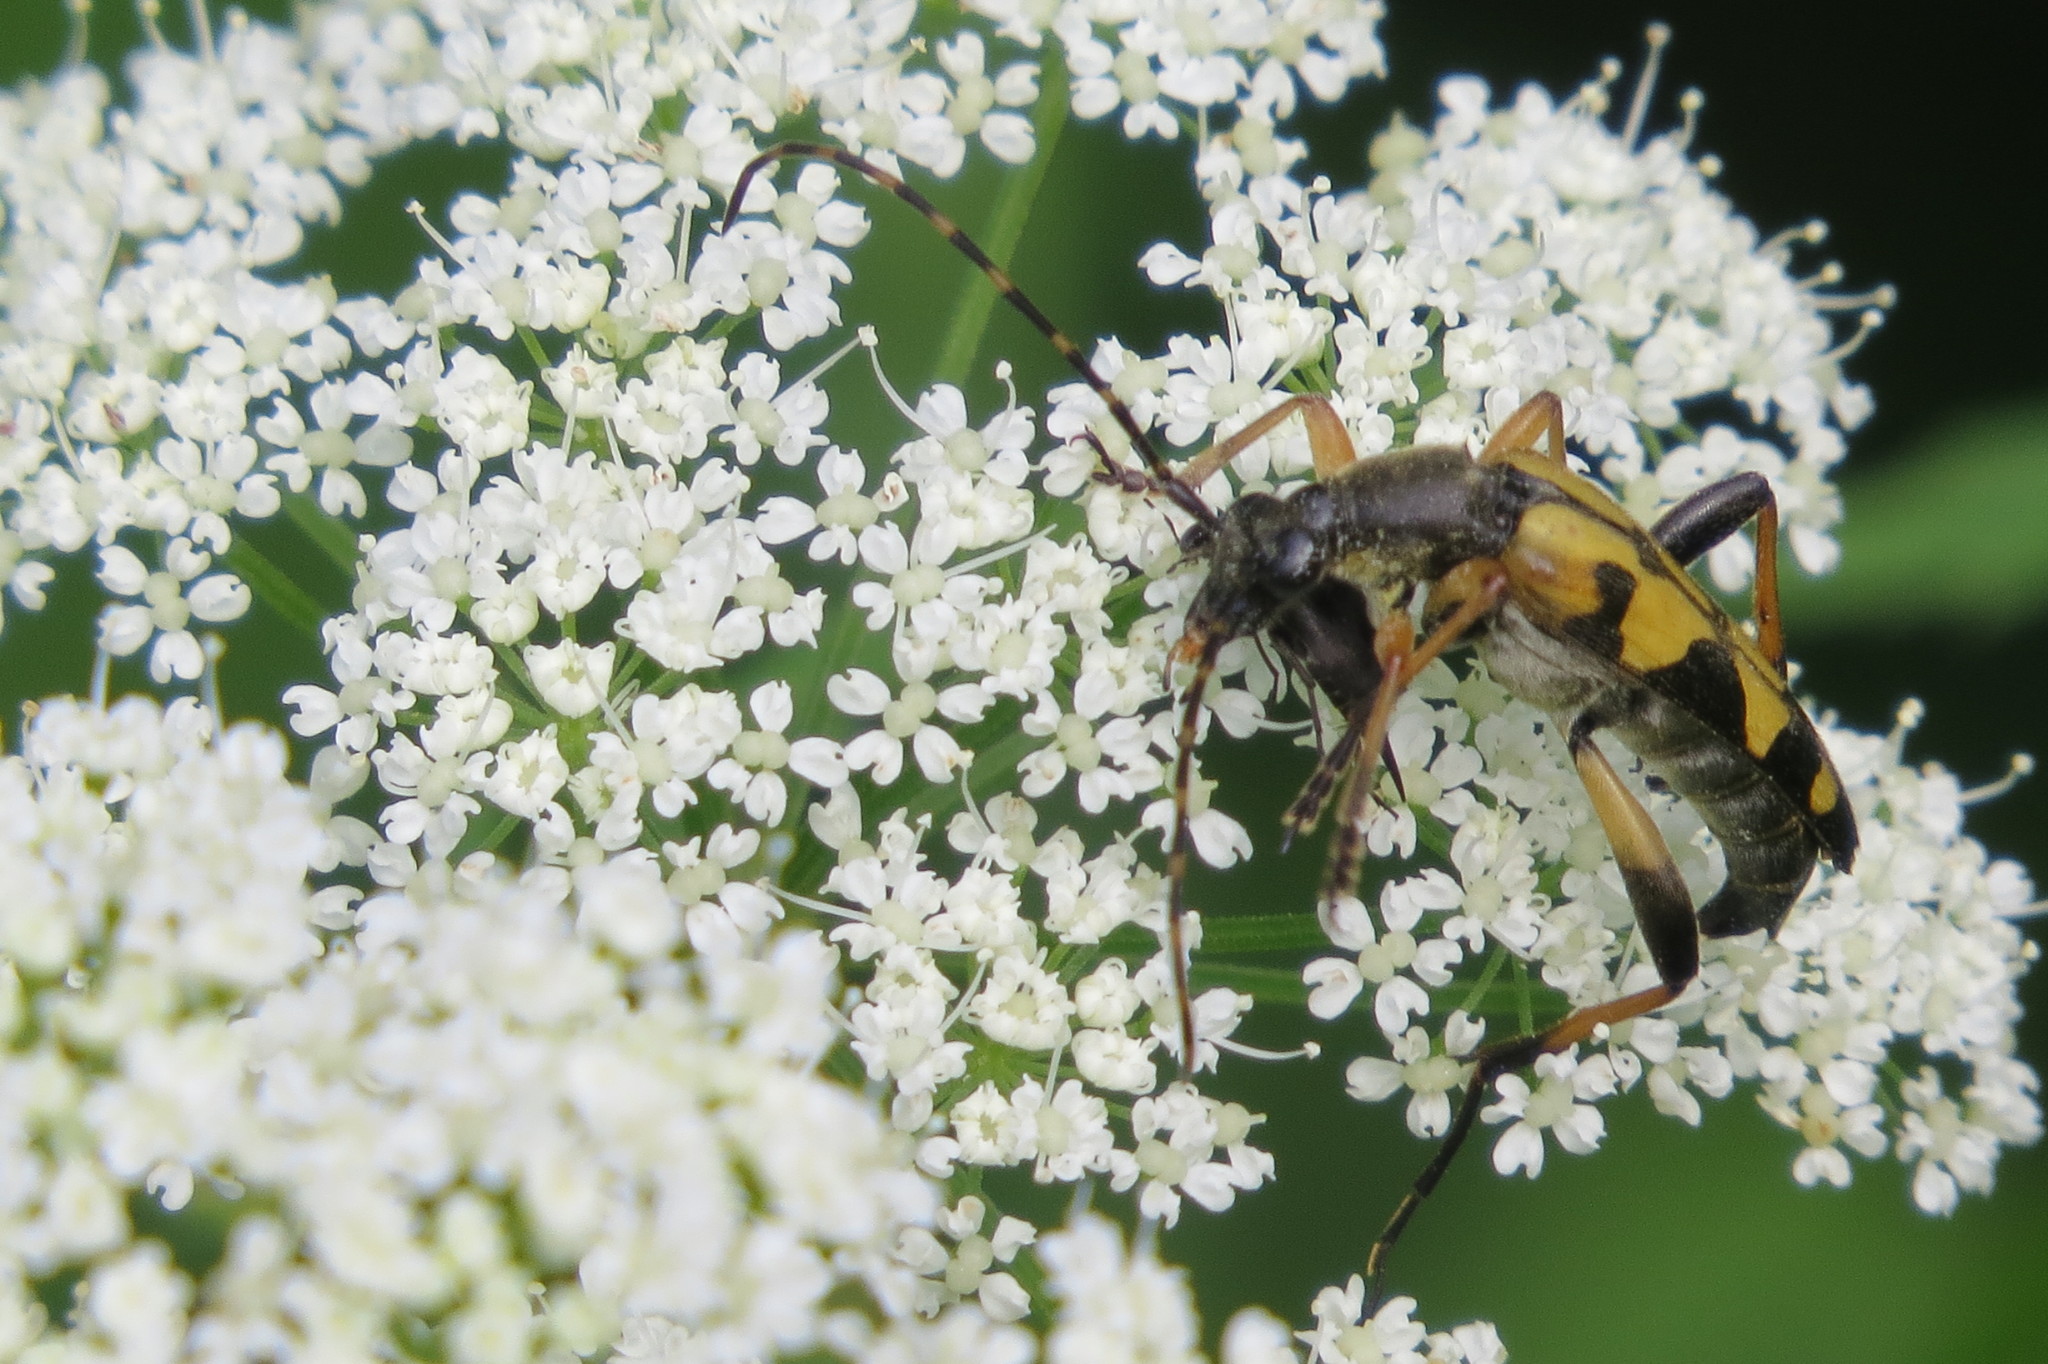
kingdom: Animalia
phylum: Arthropoda
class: Insecta
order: Coleoptera
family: Cerambycidae
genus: Rutpela
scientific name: Rutpela maculata
